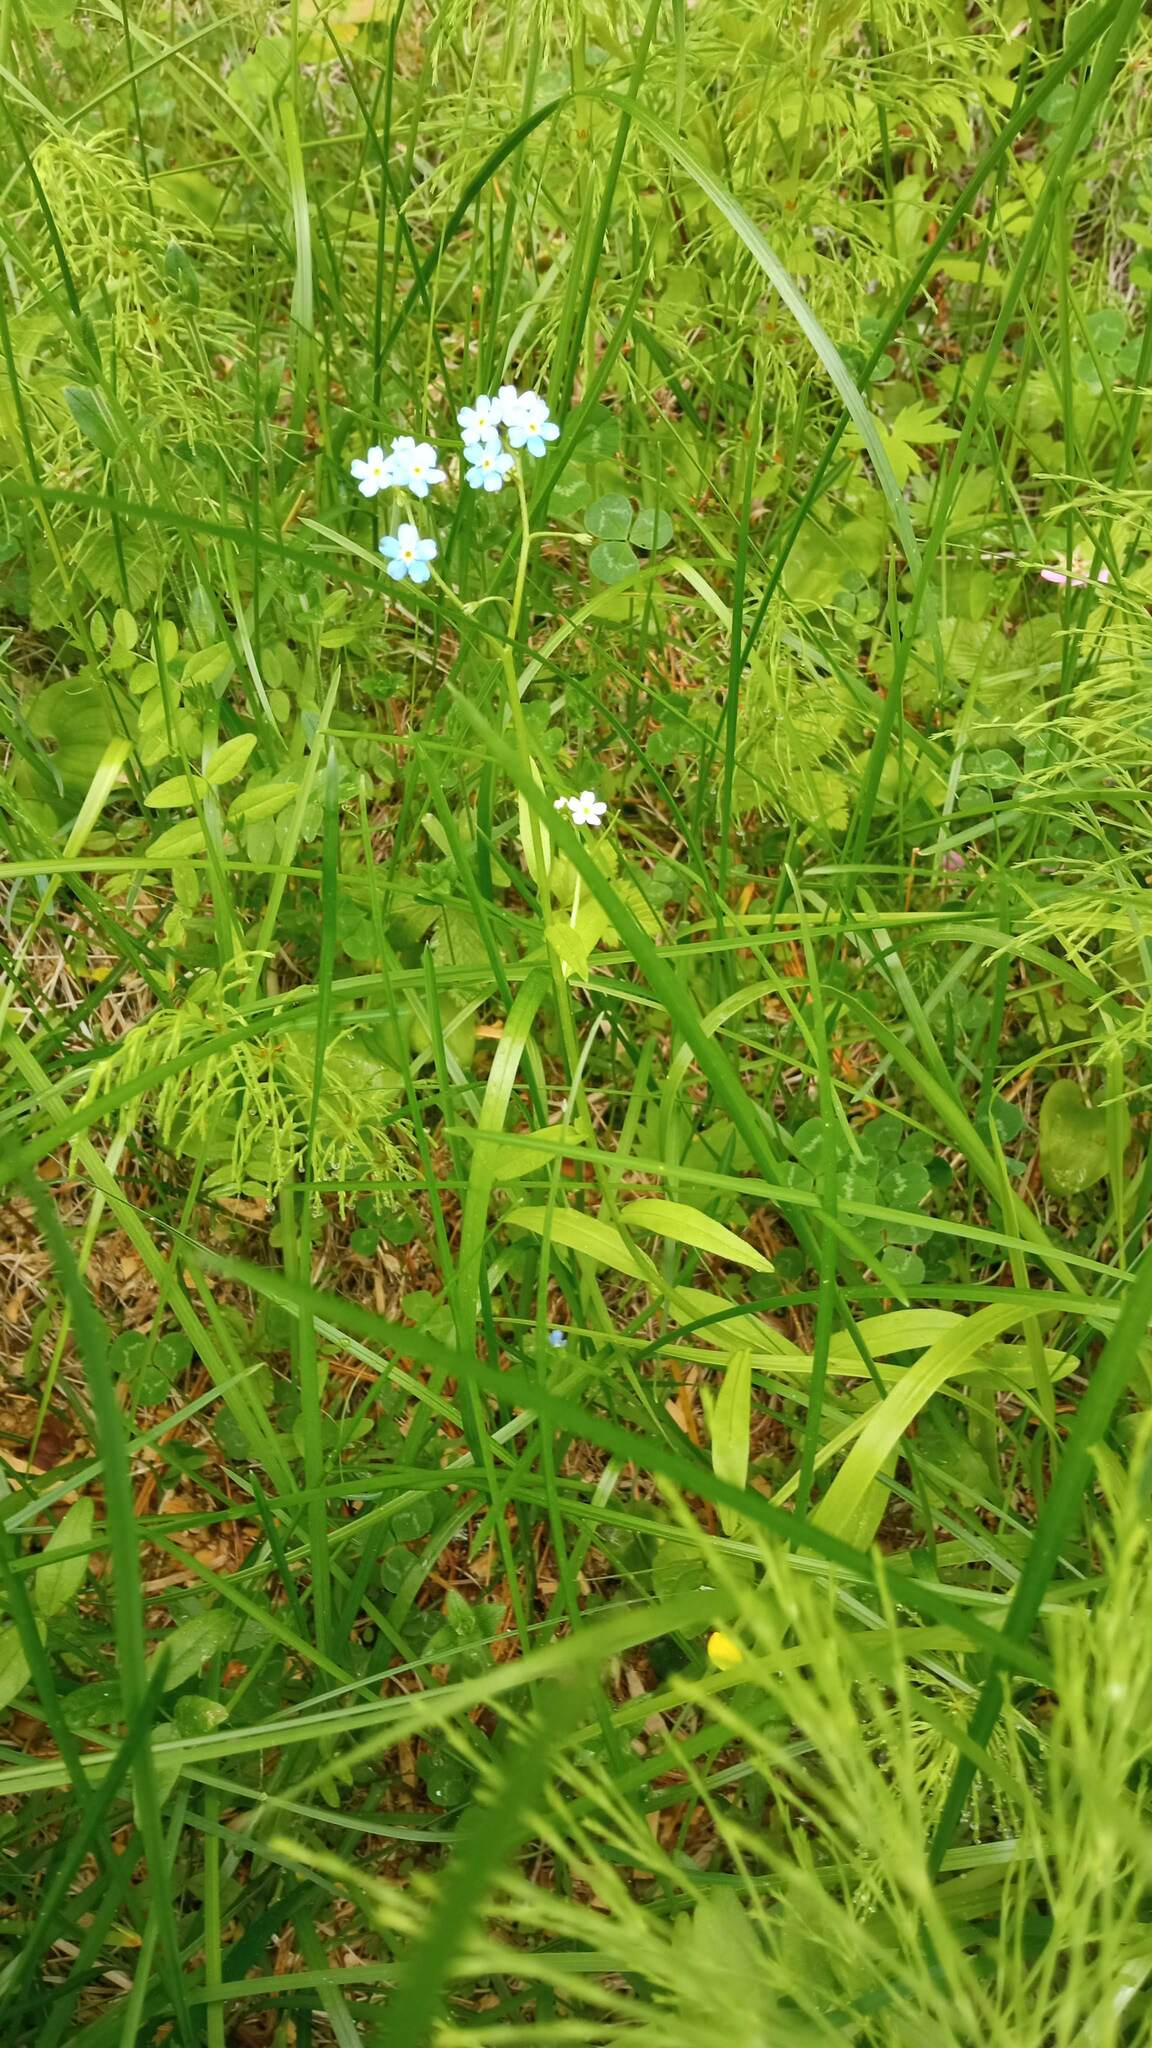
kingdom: Plantae
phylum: Tracheophyta
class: Magnoliopsida
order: Boraginales
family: Boraginaceae
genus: Myosotis
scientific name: Myosotis scorpioides
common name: Water forget-me-not
